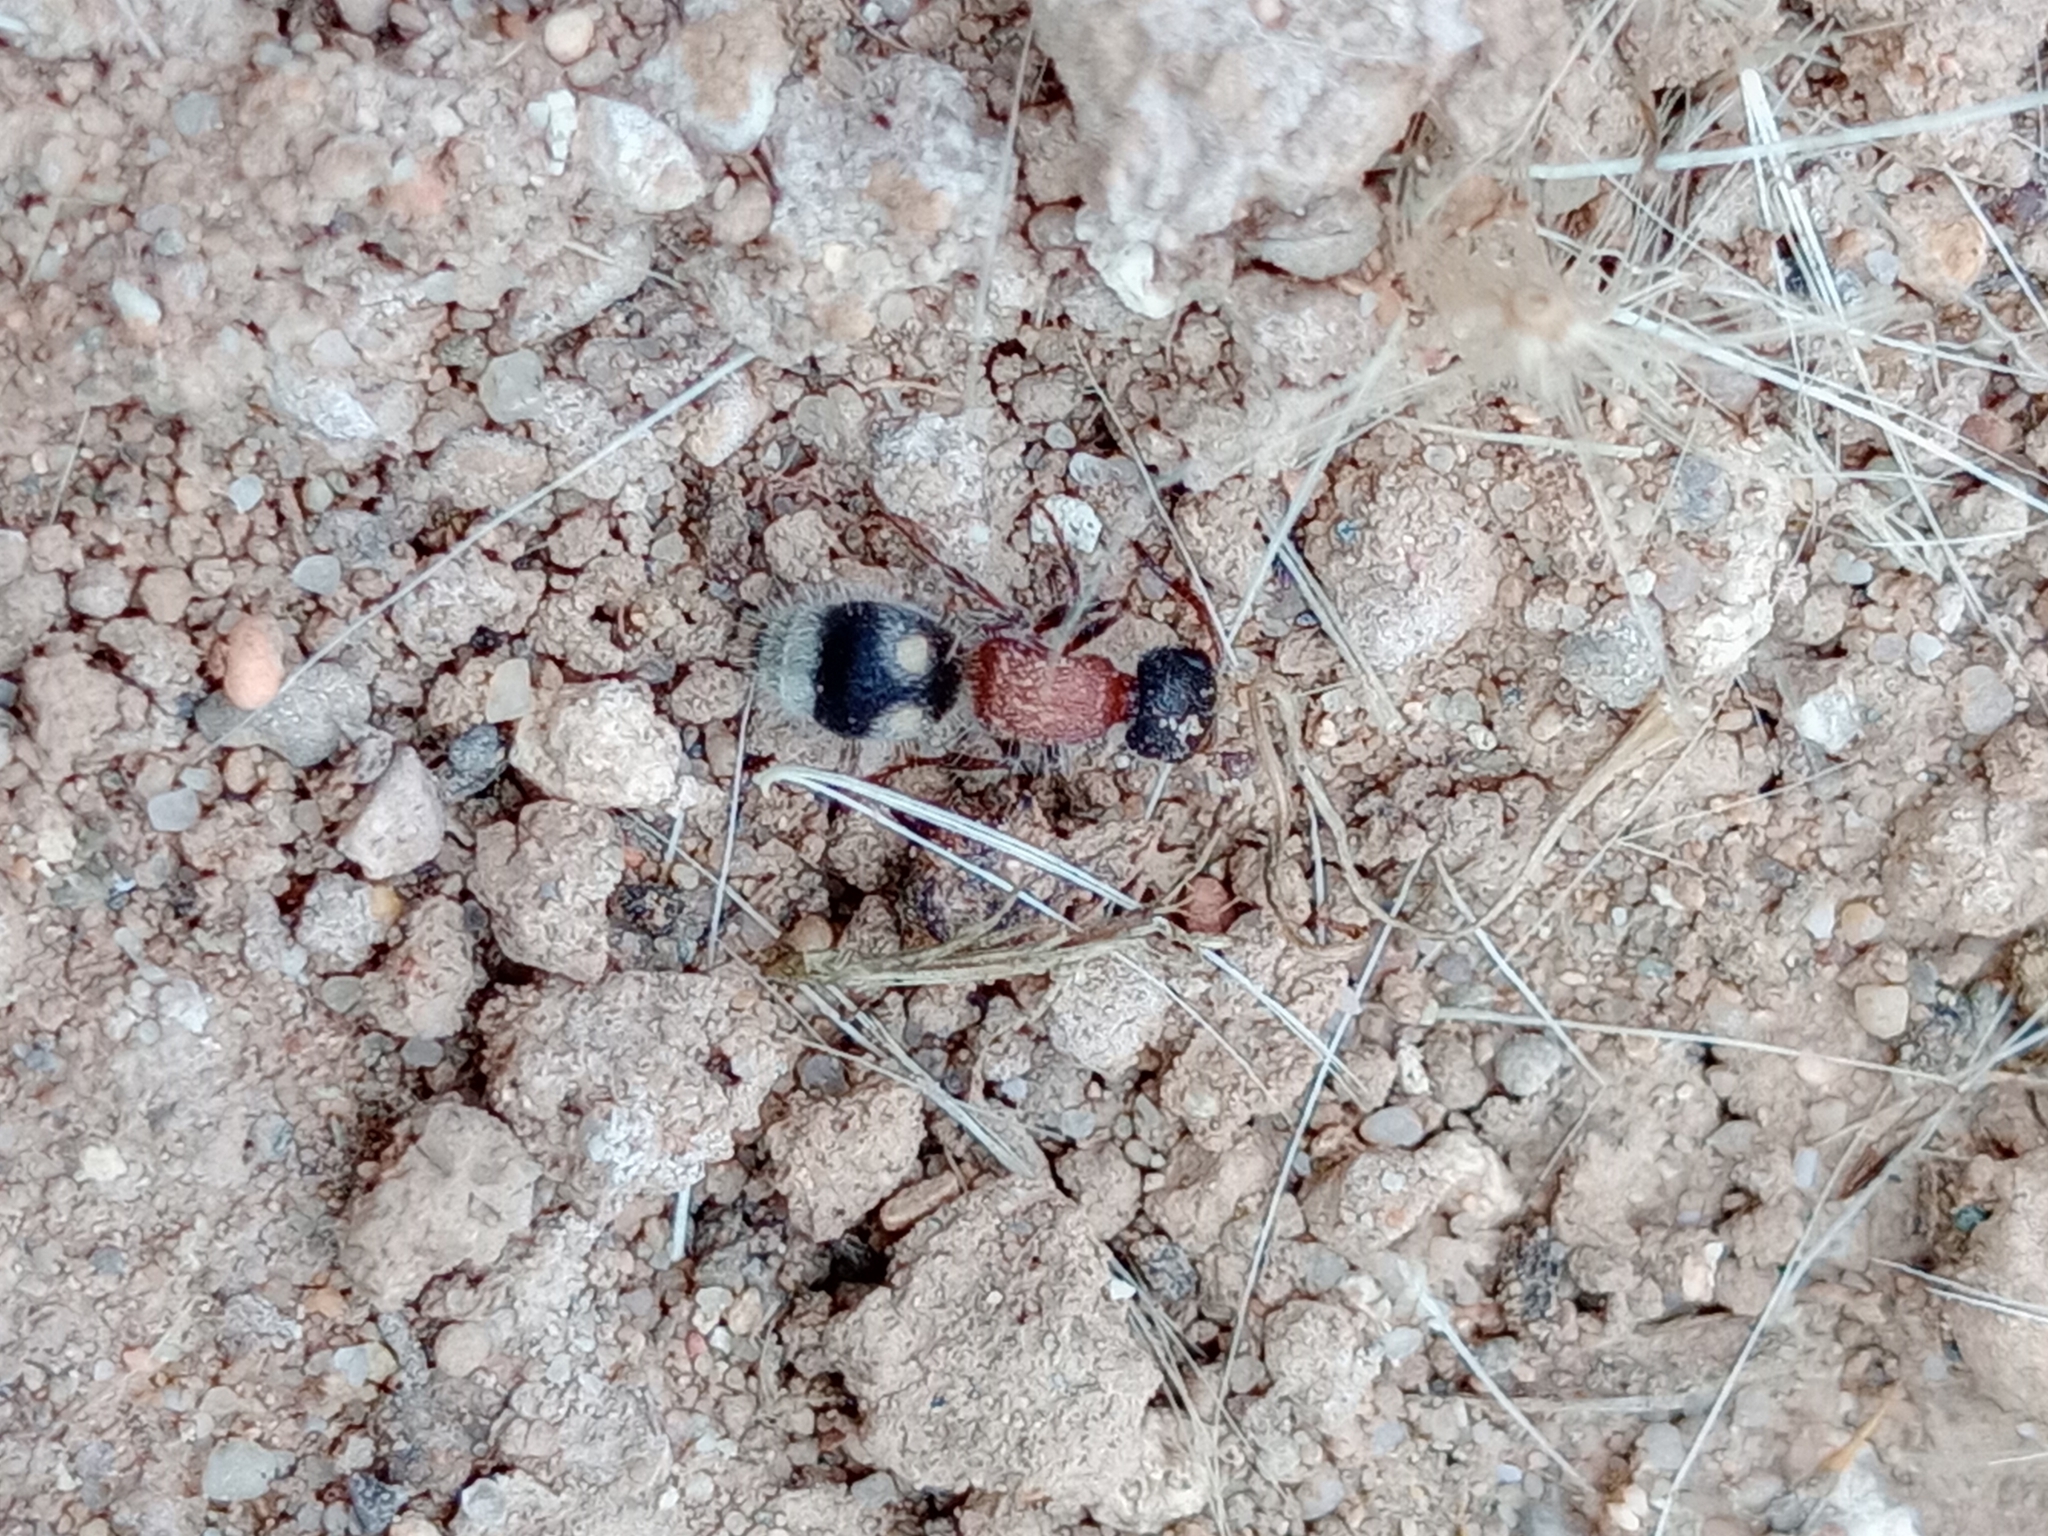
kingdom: Animalia
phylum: Arthropoda
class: Insecta
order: Hymenoptera
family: Mutillidae
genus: Bidecoloratilla
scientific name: Bidecoloratilla iberica
